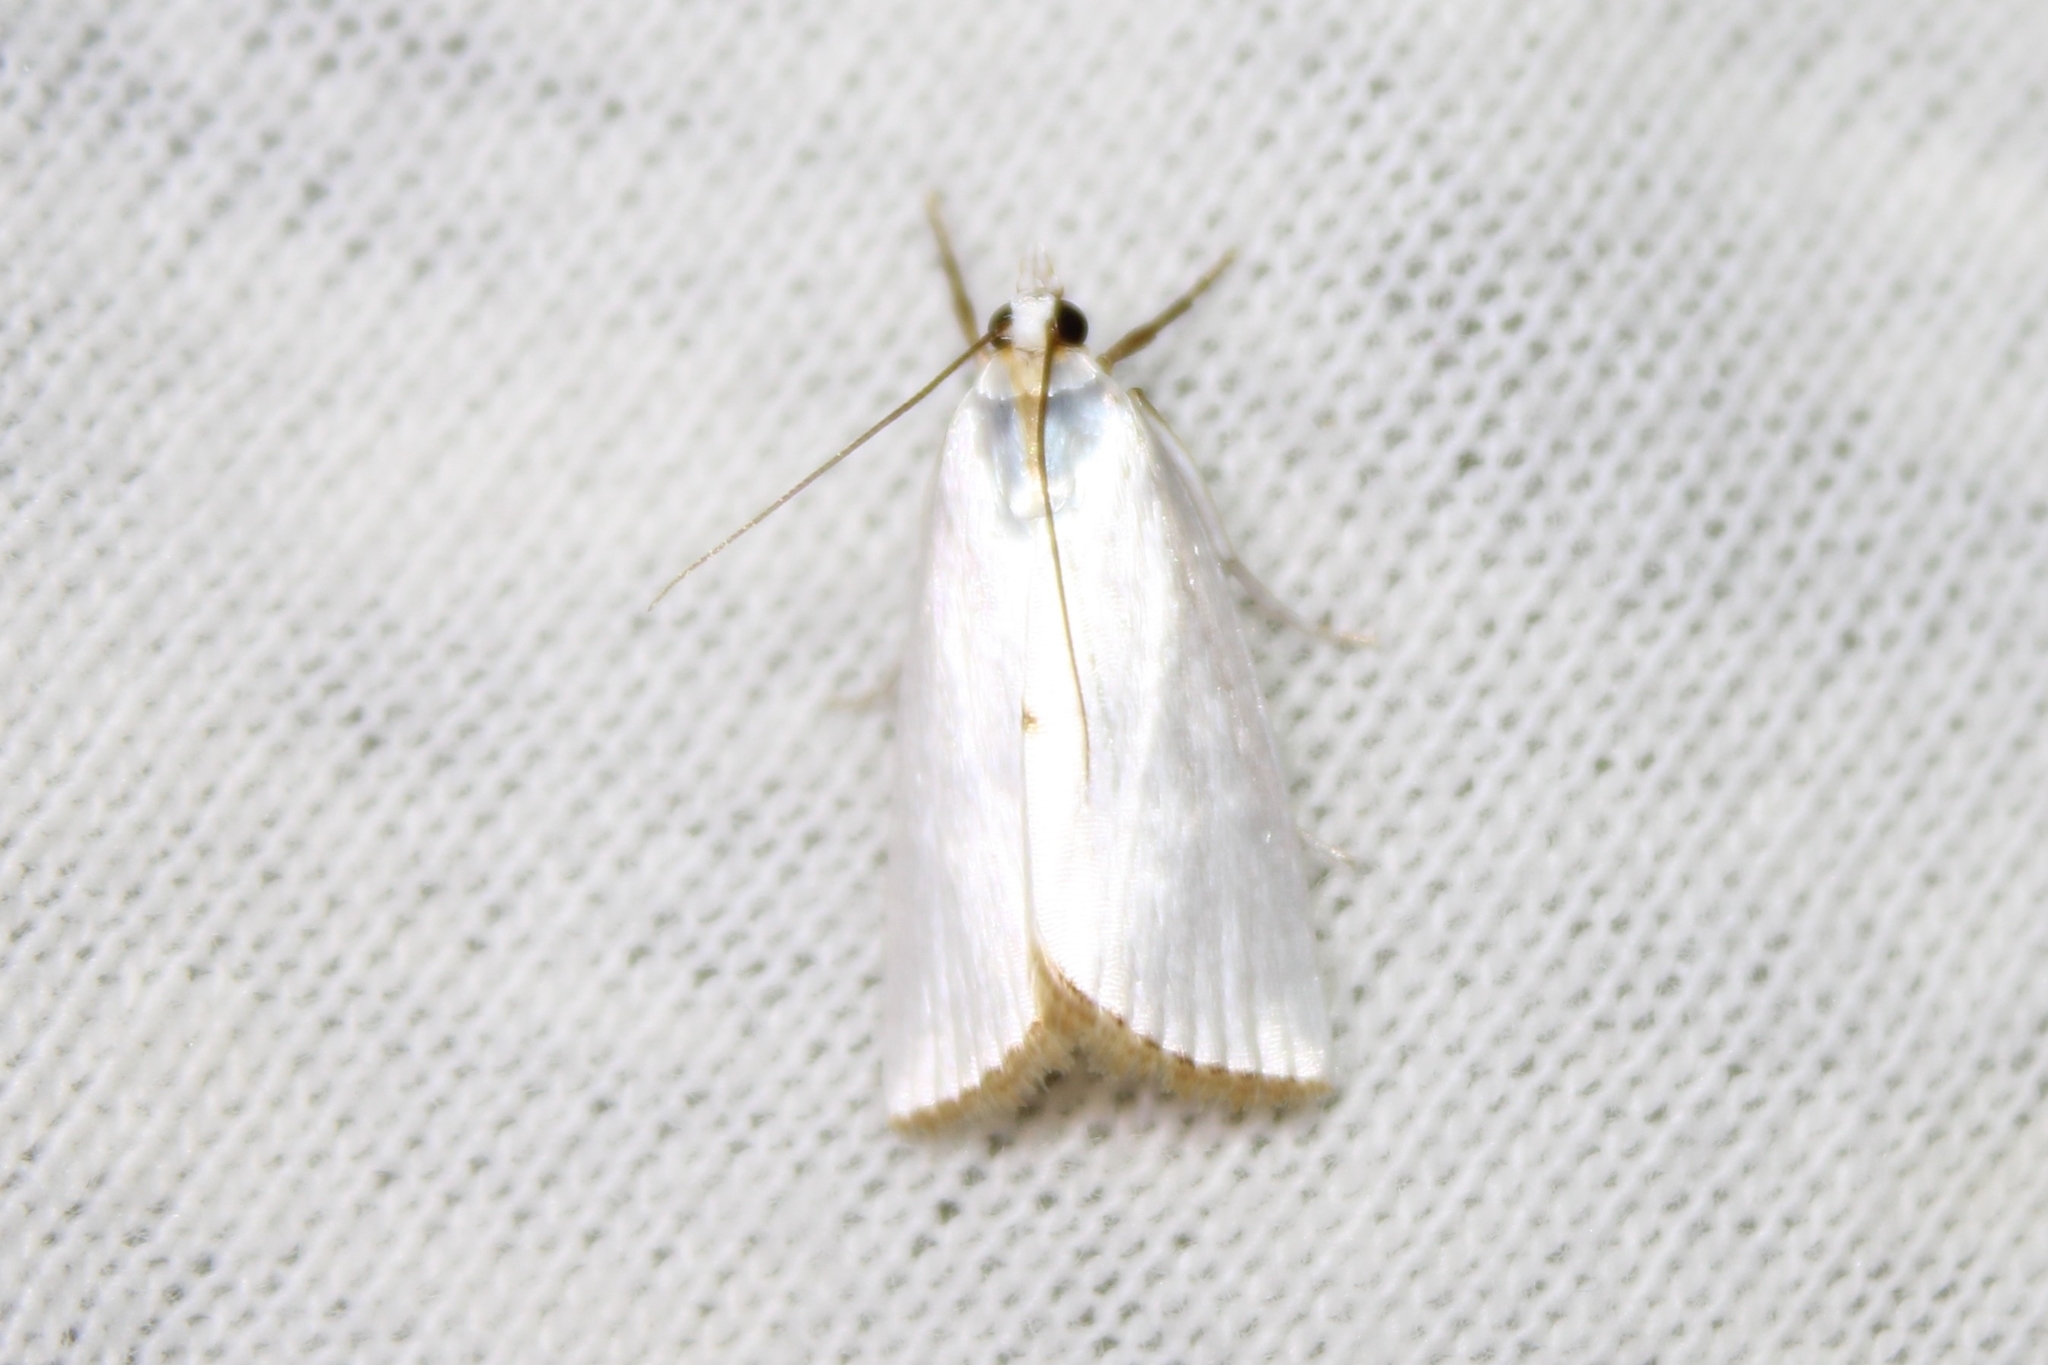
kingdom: Animalia
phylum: Arthropoda
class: Insecta
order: Lepidoptera
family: Crambidae
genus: Argyria
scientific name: Argyria nivalis
